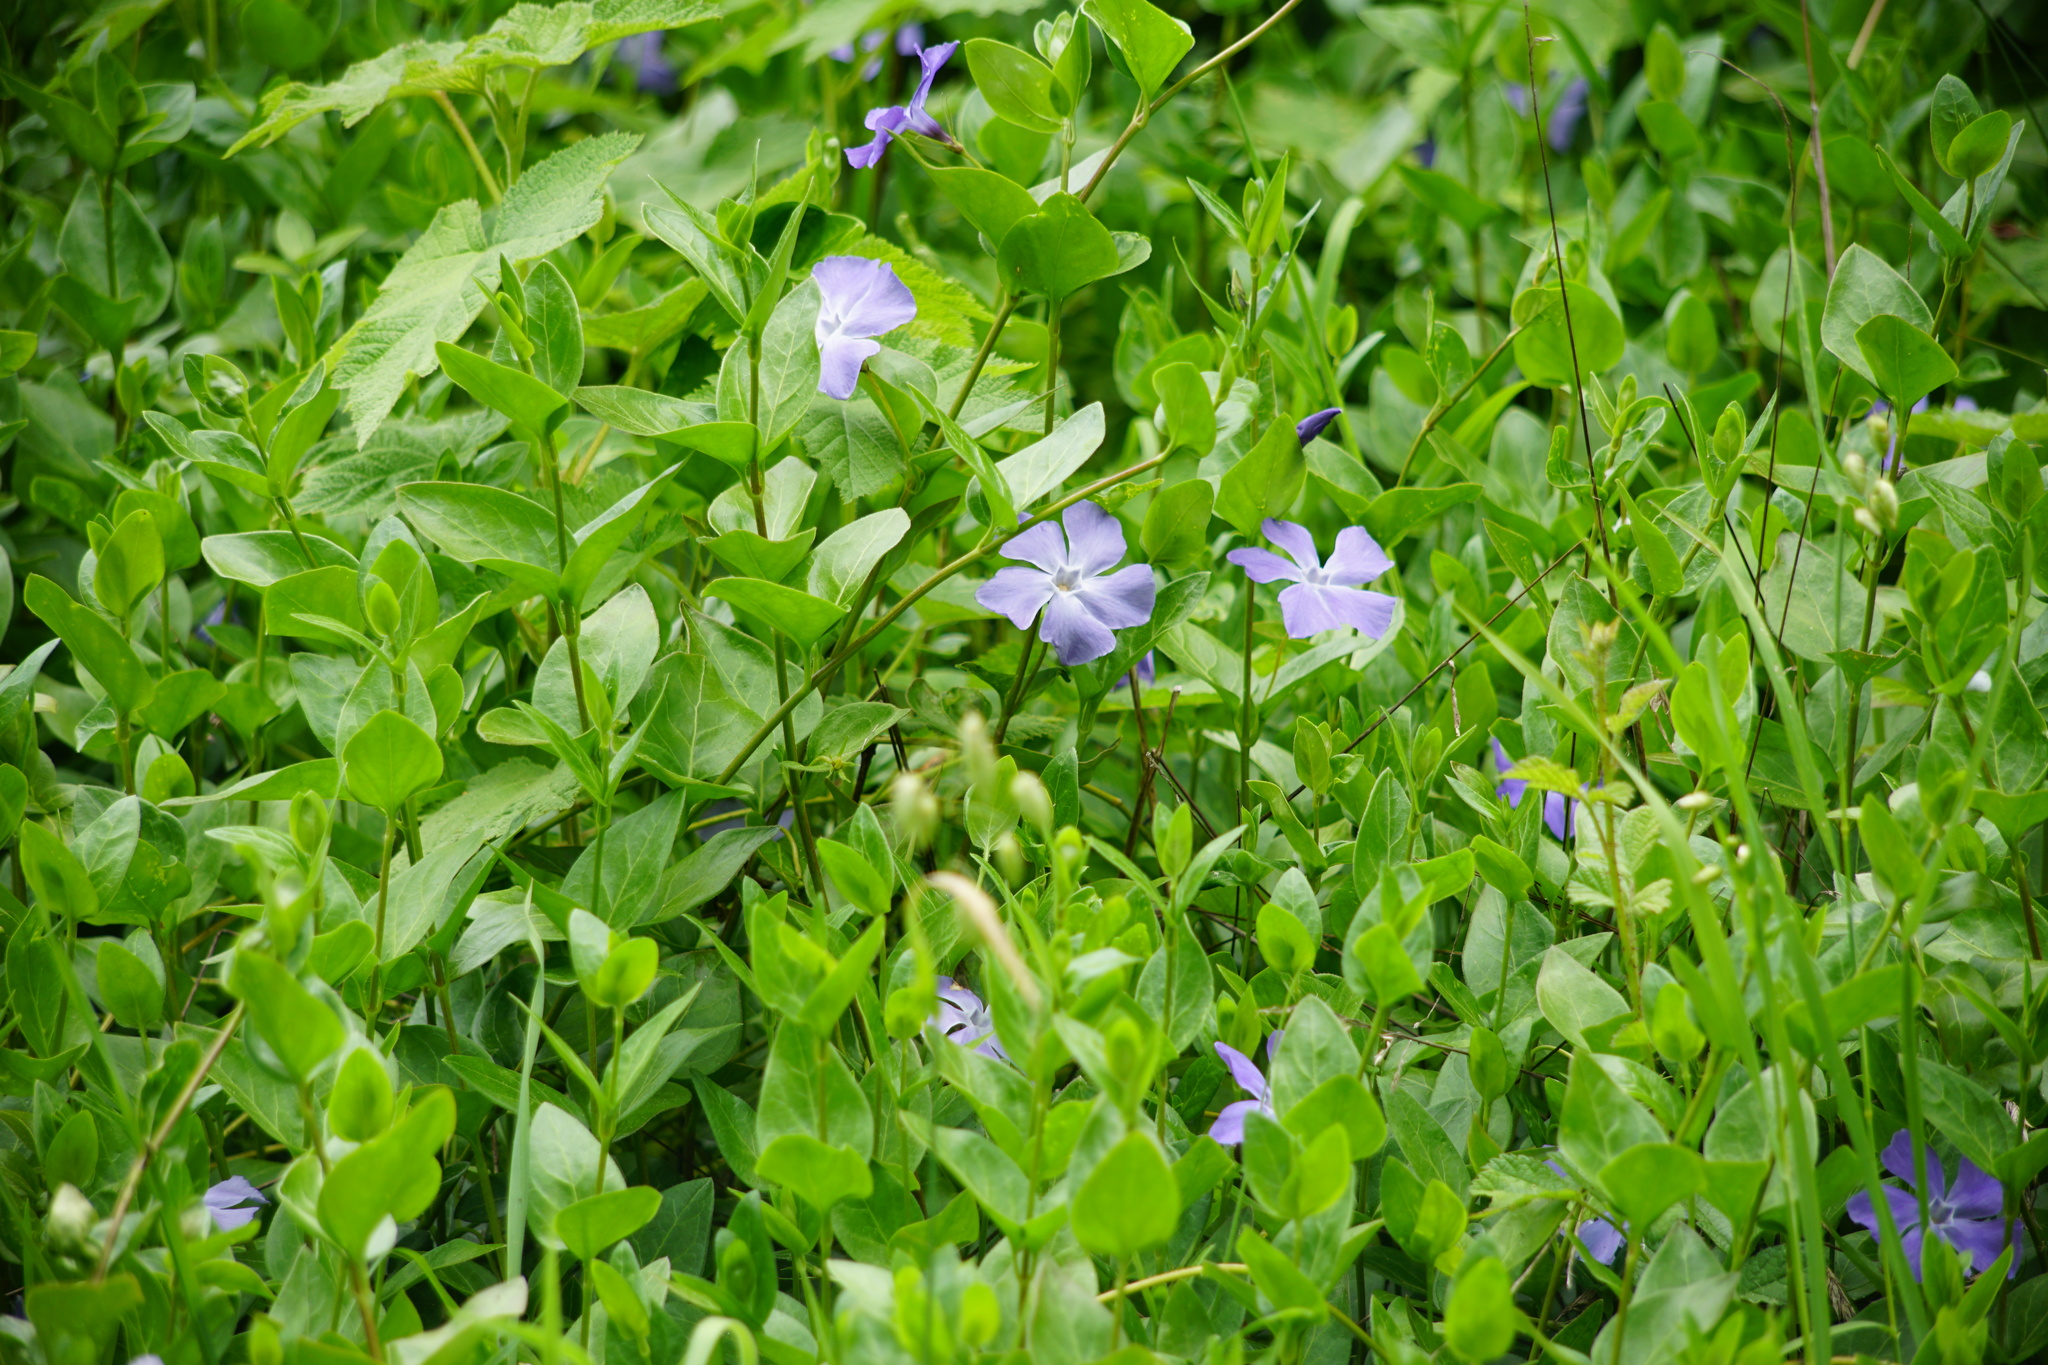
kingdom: Plantae
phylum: Tracheophyta
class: Magnoliopsida
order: Gentianales
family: Apocynaceae
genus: Vinca
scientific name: Vinca major
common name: Greater periwinkle
